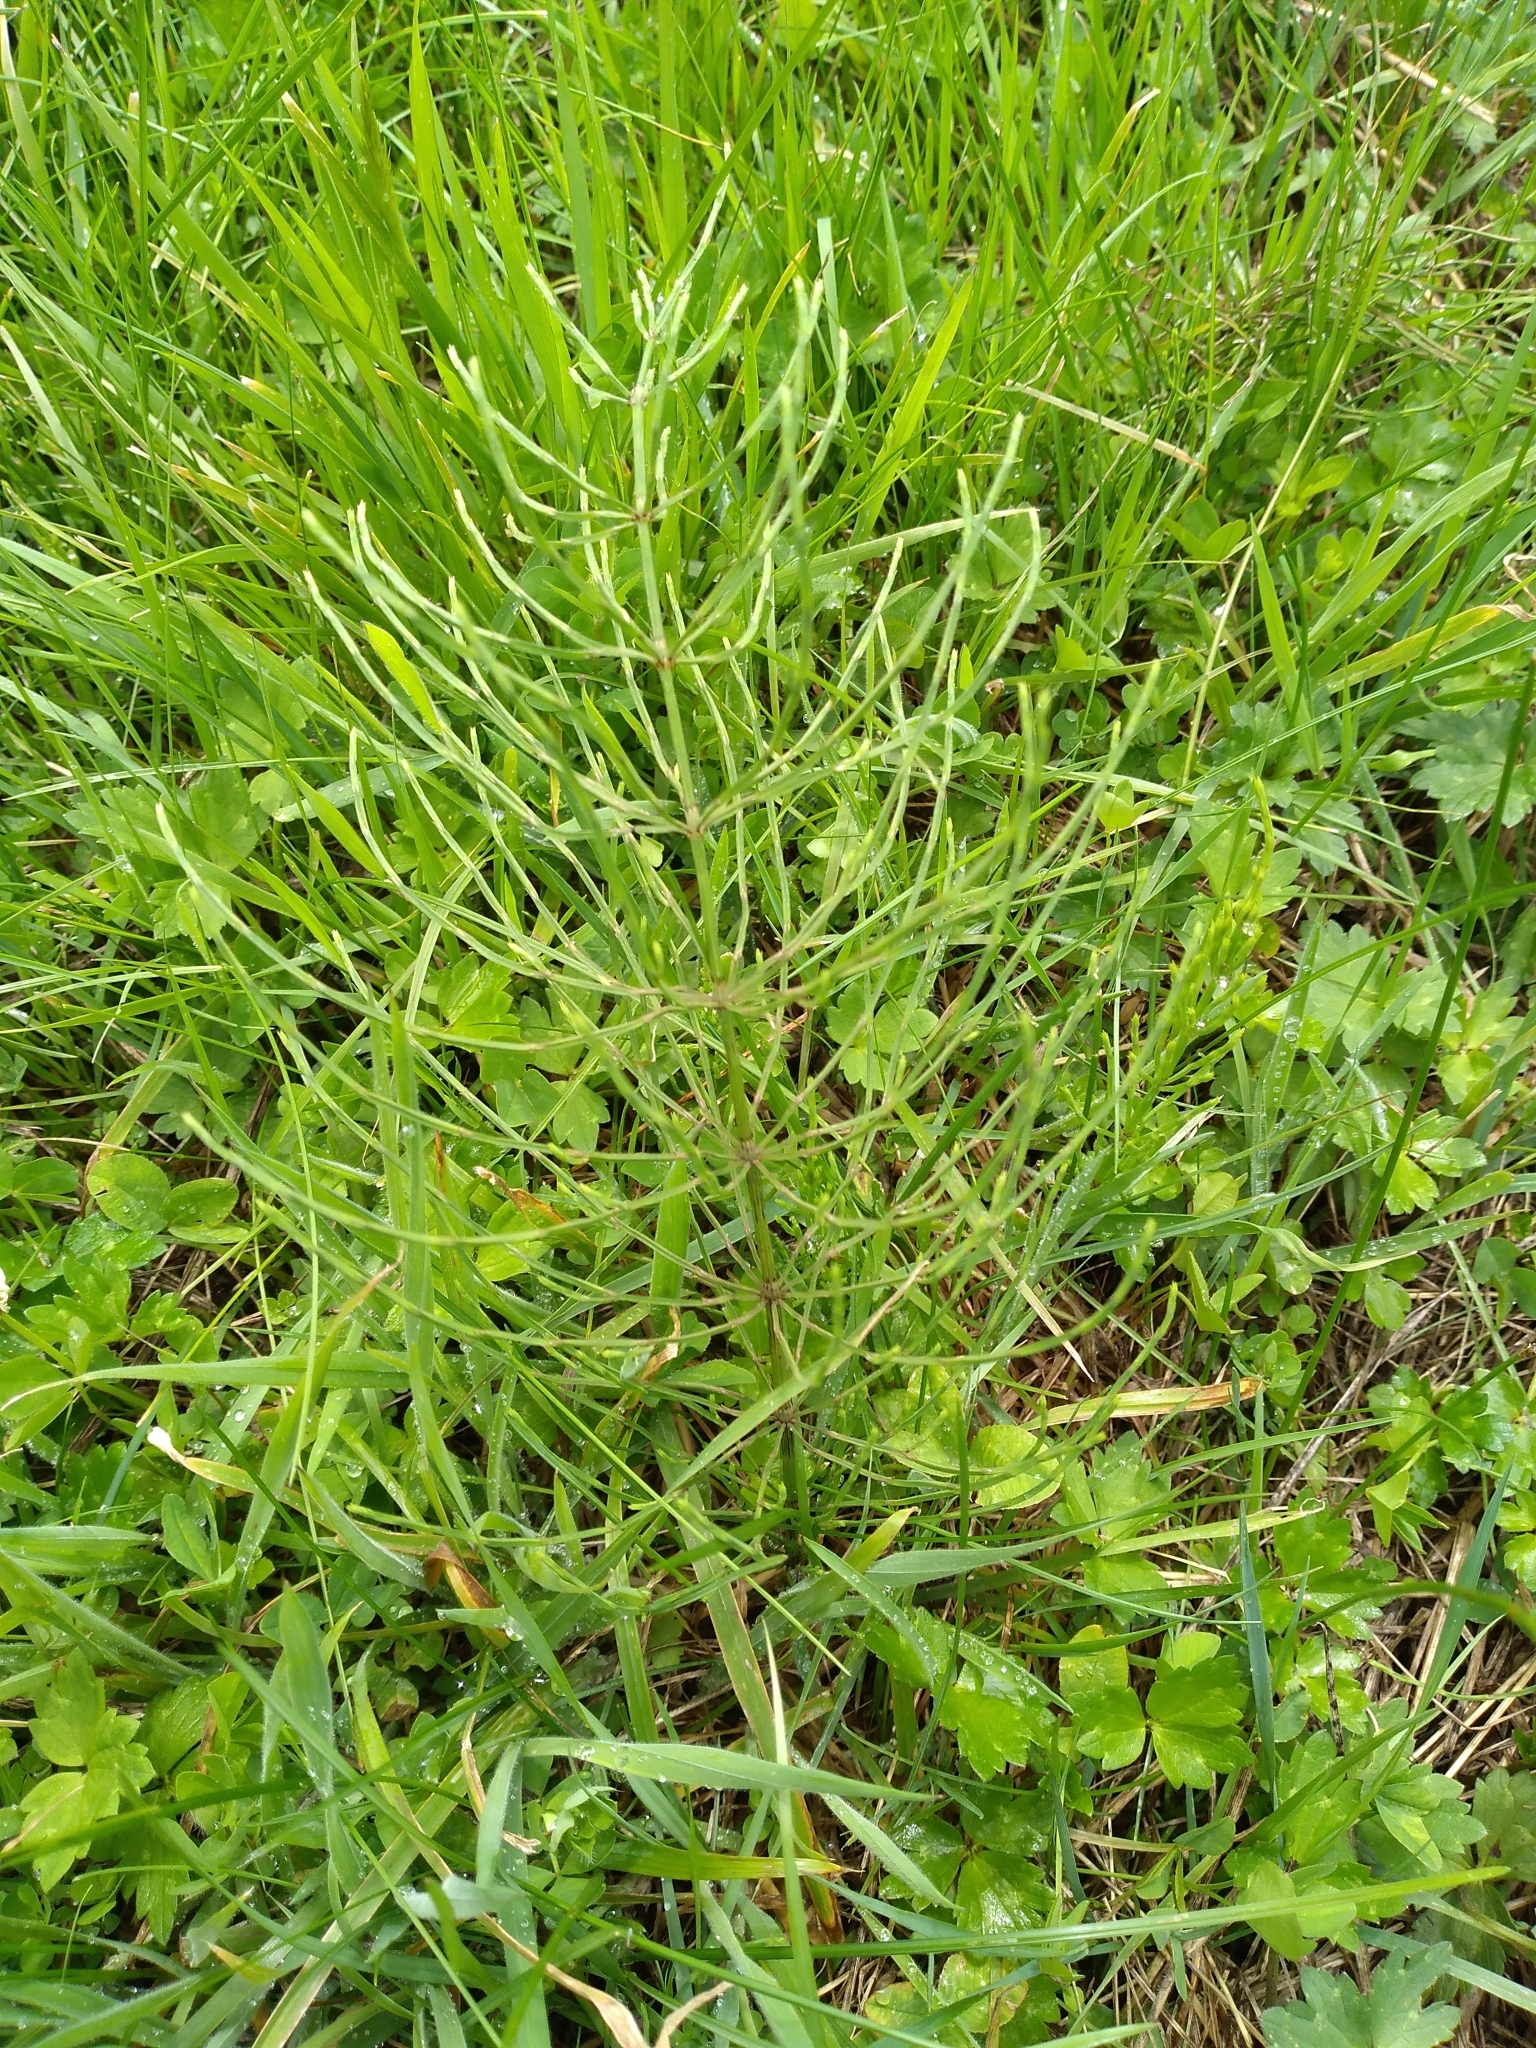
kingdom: Plantae
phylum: Tracheophyta
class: Polypodiopsida
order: Equisetales
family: Equisetaceae
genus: Equisetum
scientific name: Equisetum arvense
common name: Field horsetail
